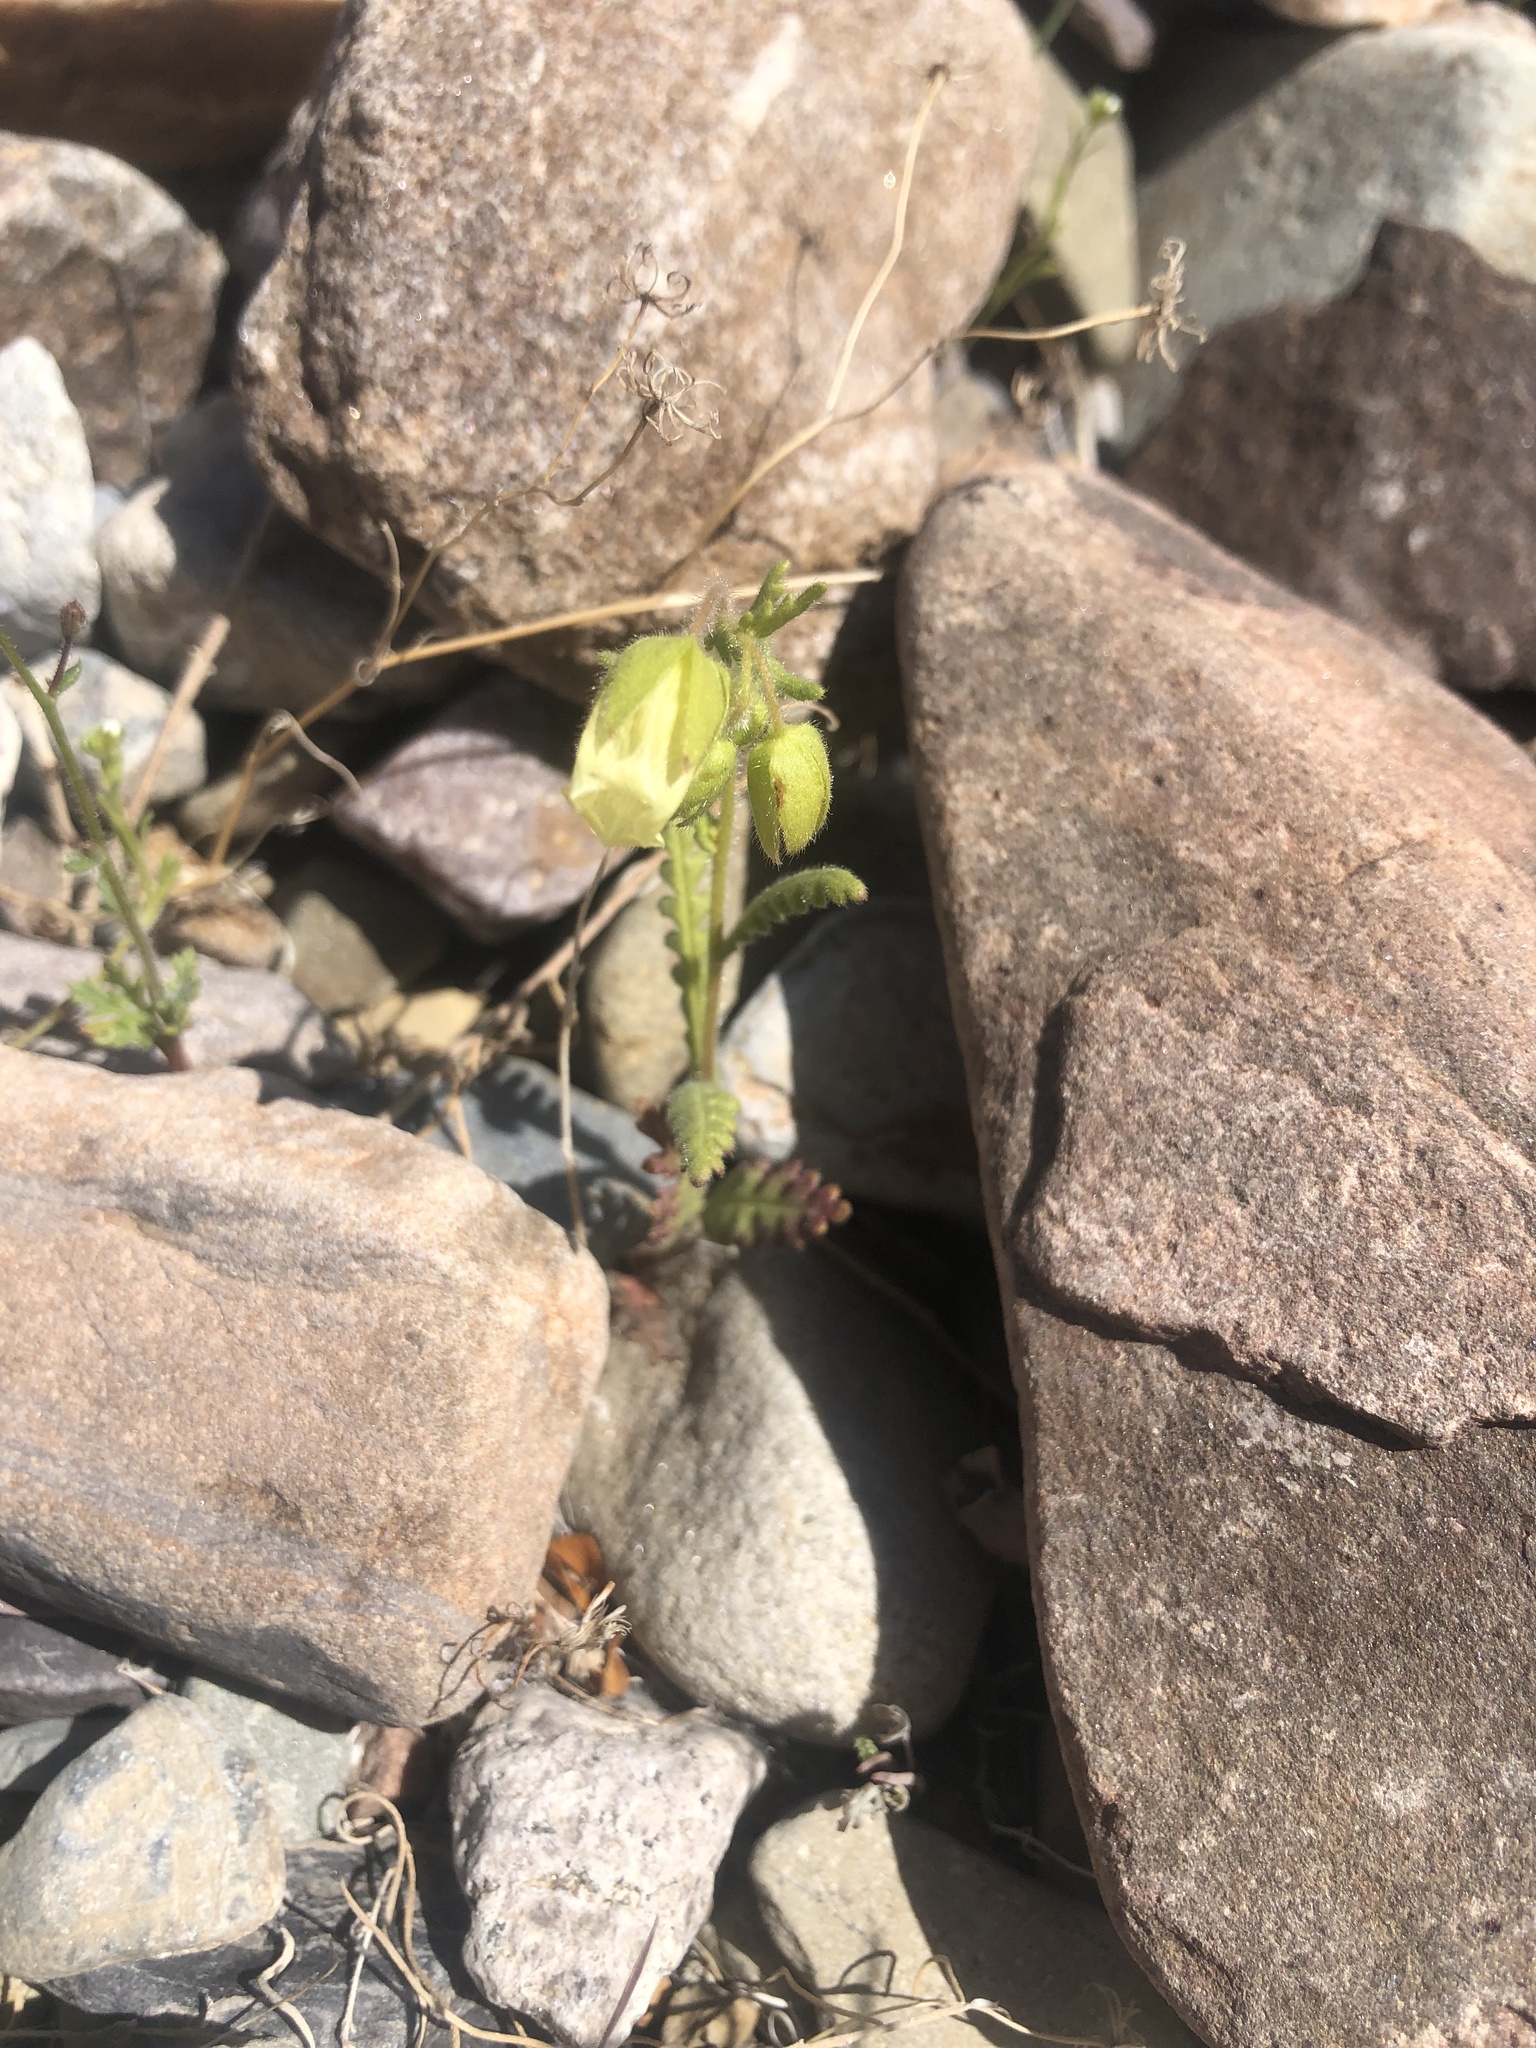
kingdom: Plantae
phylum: Tracheophyta
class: Magnoliopsida
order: Boraginales
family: Hydrophyllaceae
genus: Emmenanthe
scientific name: Emmenanthe penduliflora
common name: Whispering-bells
